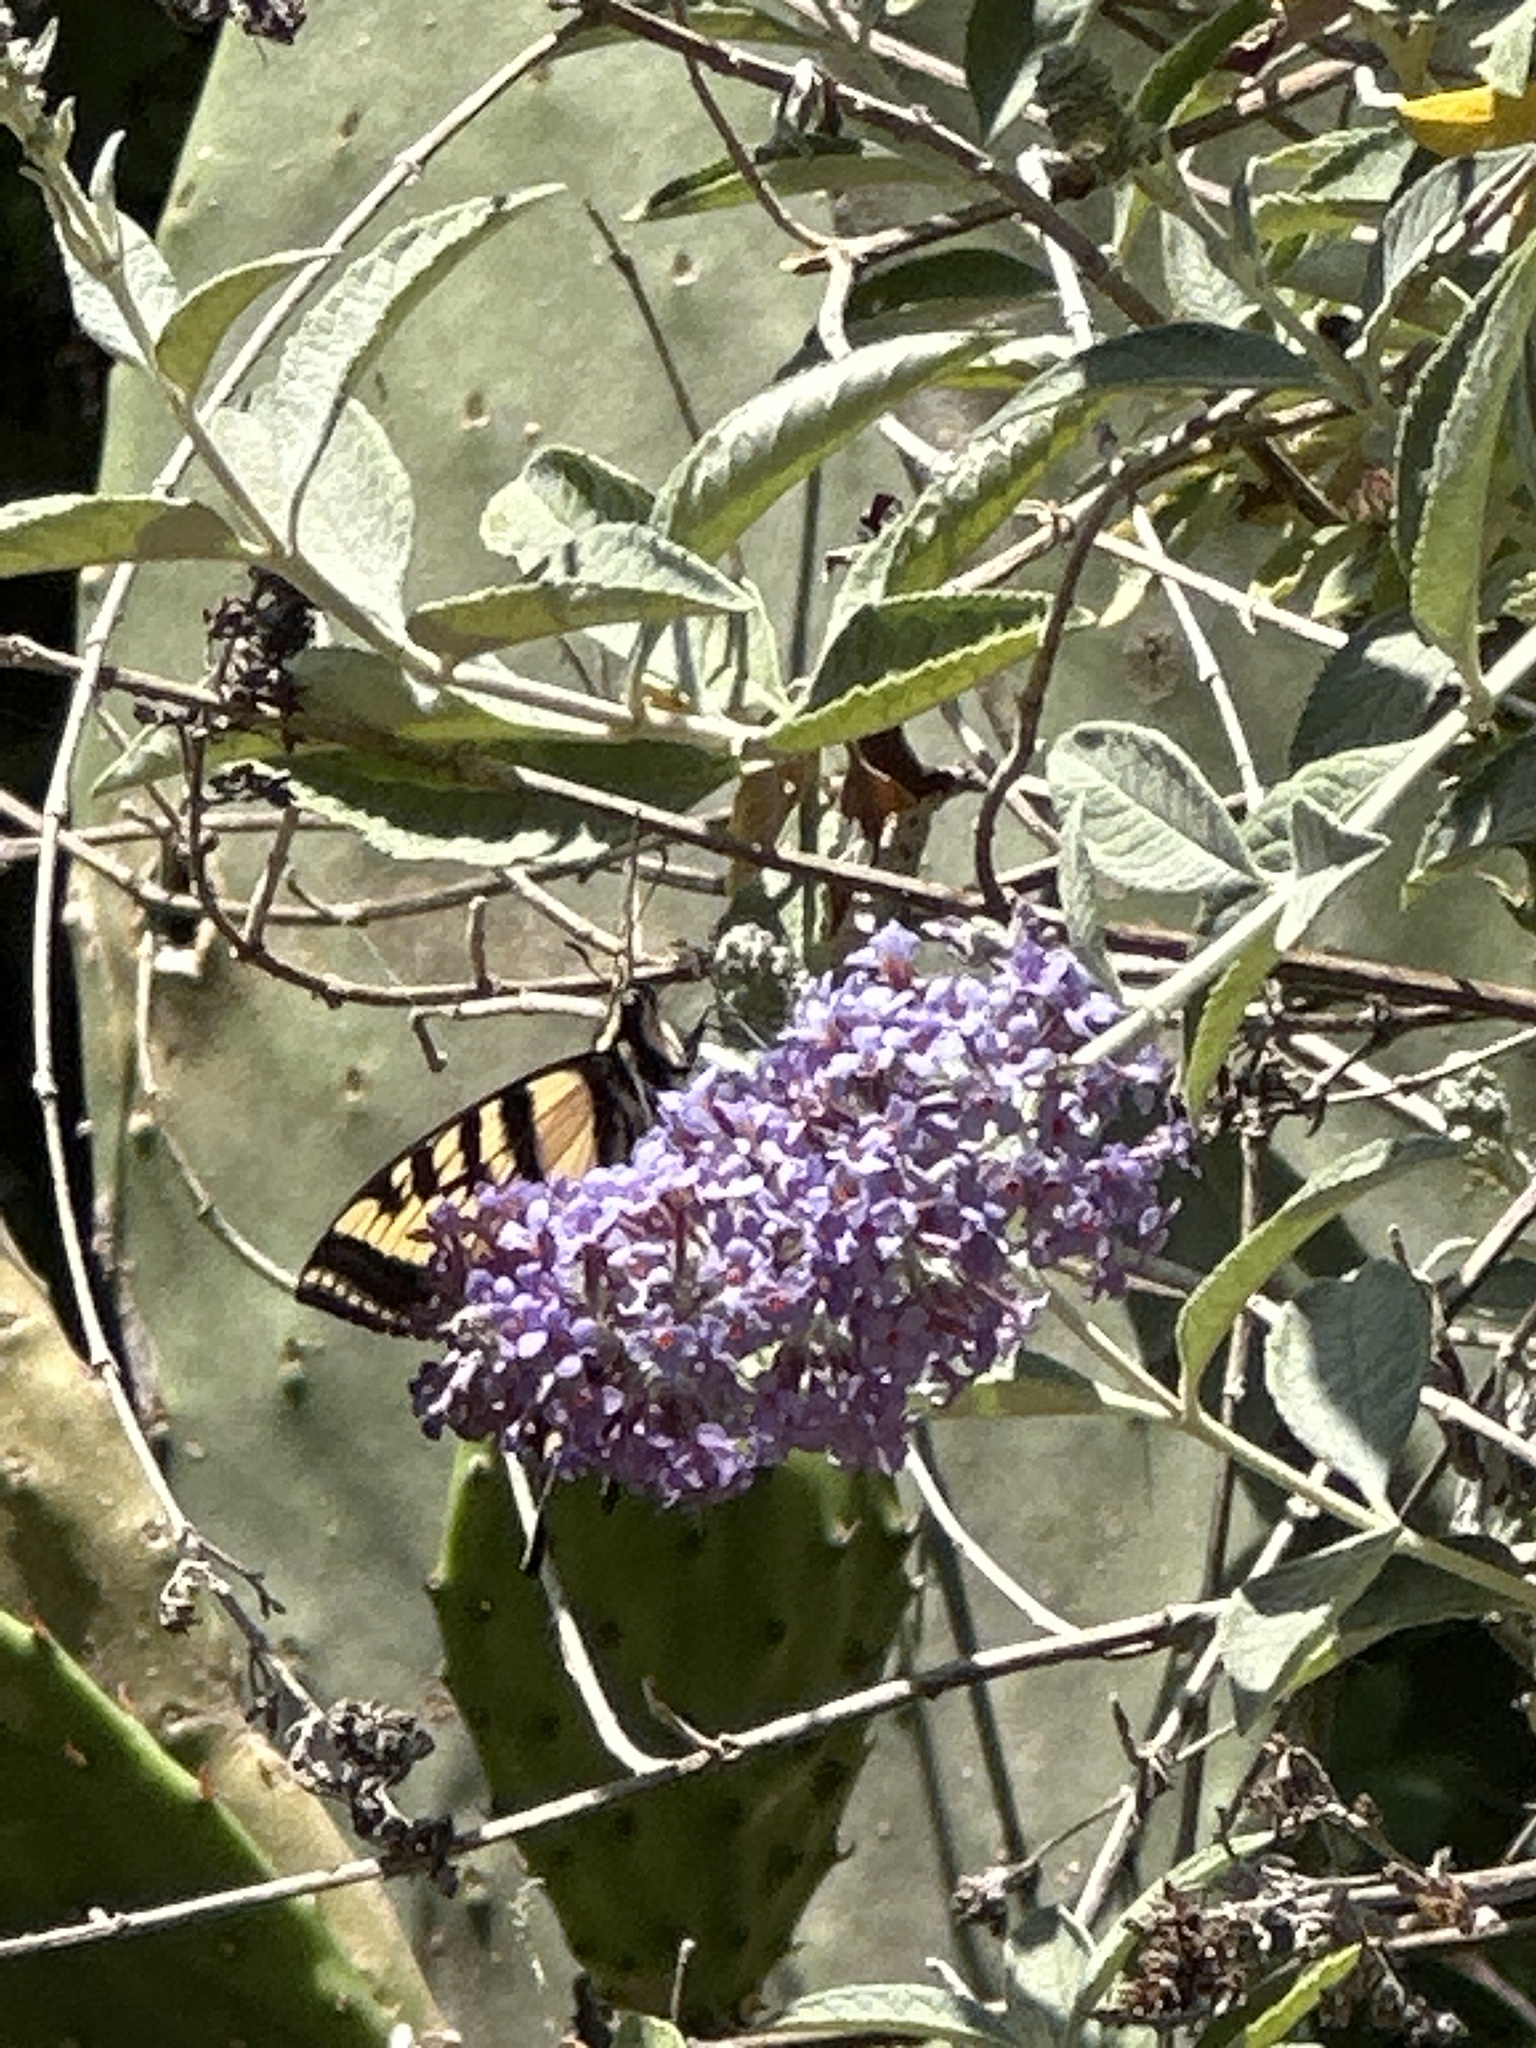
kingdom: Animalia
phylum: Arthropoda
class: Insecta
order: Lepidoptera
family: Papilionidae
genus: Papilio
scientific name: Papilio rutulus
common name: Western tiger swallowtail
